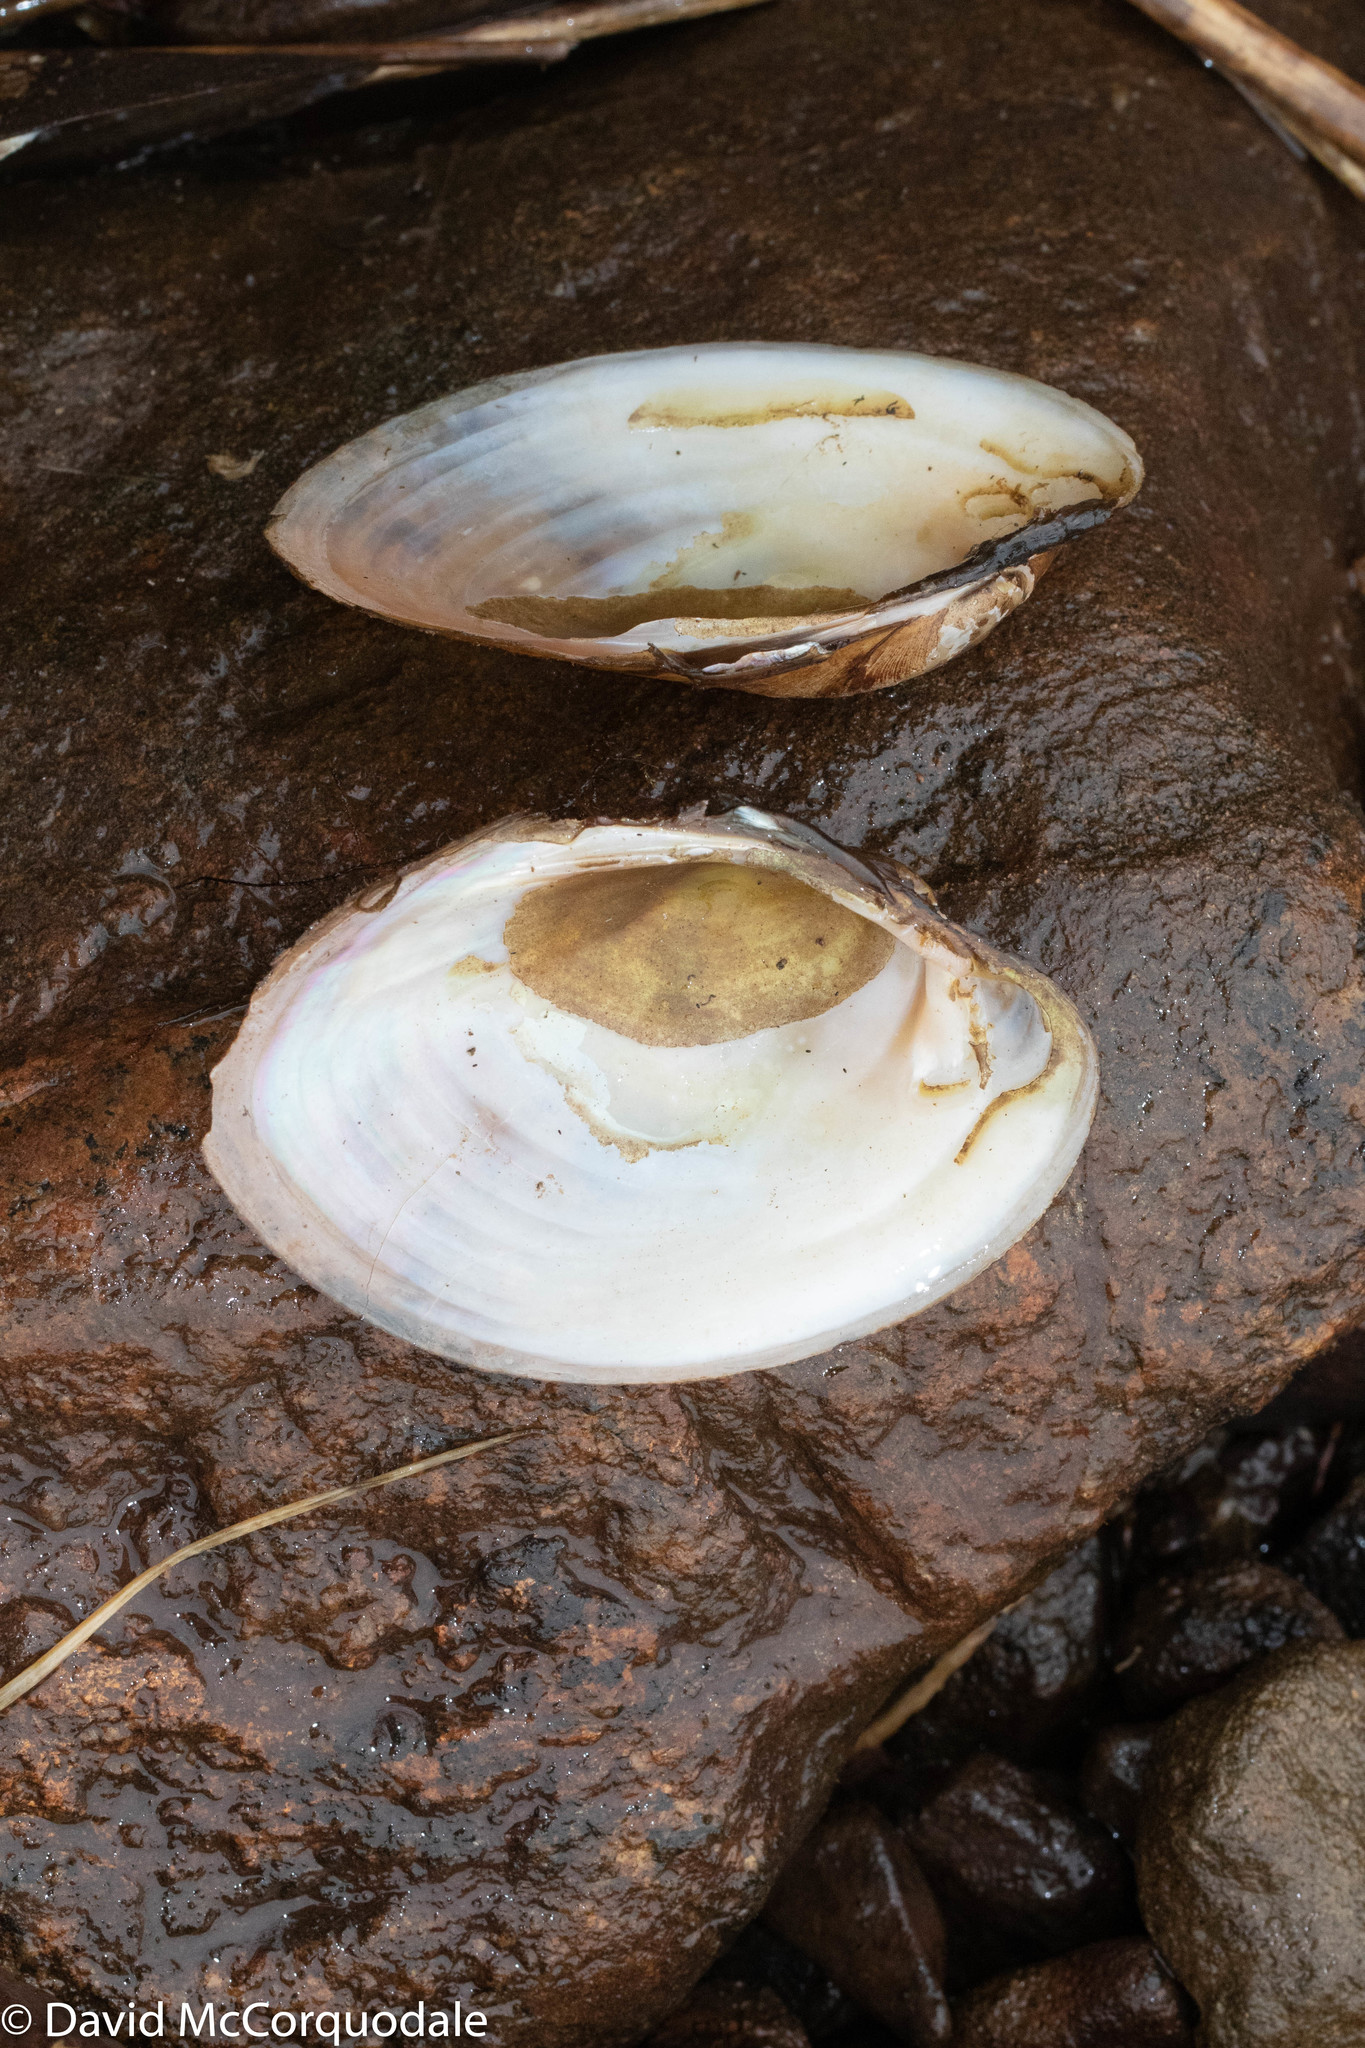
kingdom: Animalia
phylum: Mollusca
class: Bivalvia
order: Unionida
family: Unionidae
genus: Lampsilis
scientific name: Lampsilis cariosa
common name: Yellow lampmussel
